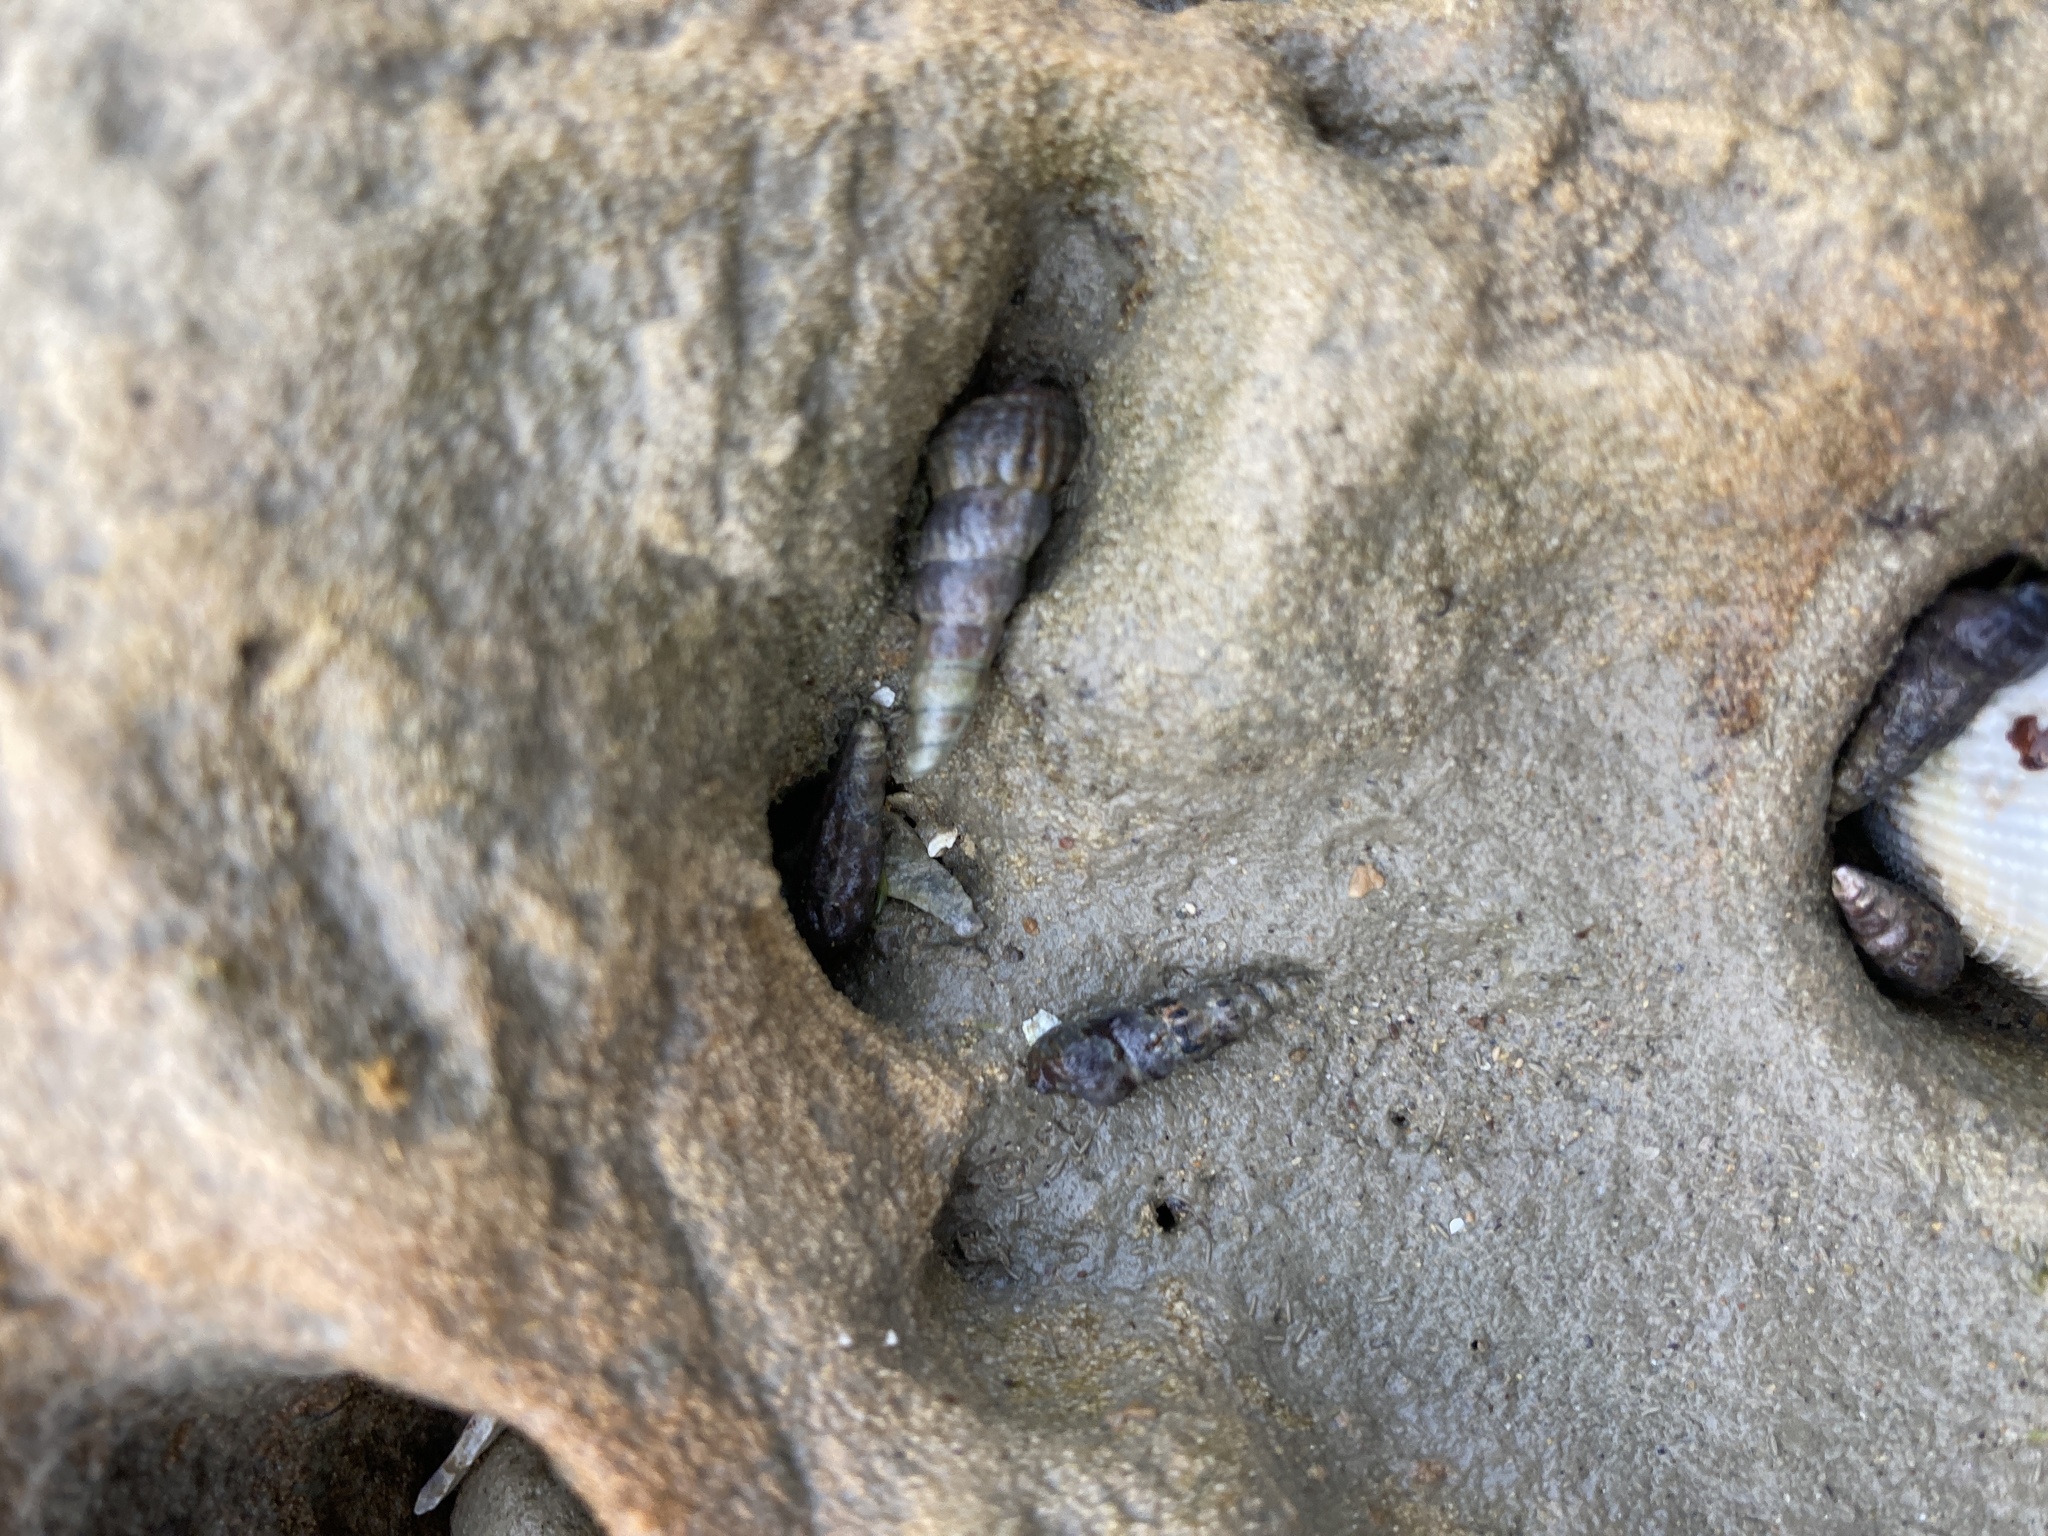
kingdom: Animalia
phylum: Mollusca
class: Gastropoda
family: Batillariidae
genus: Zeacumantus
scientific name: Zeacumantus subcarinatus
